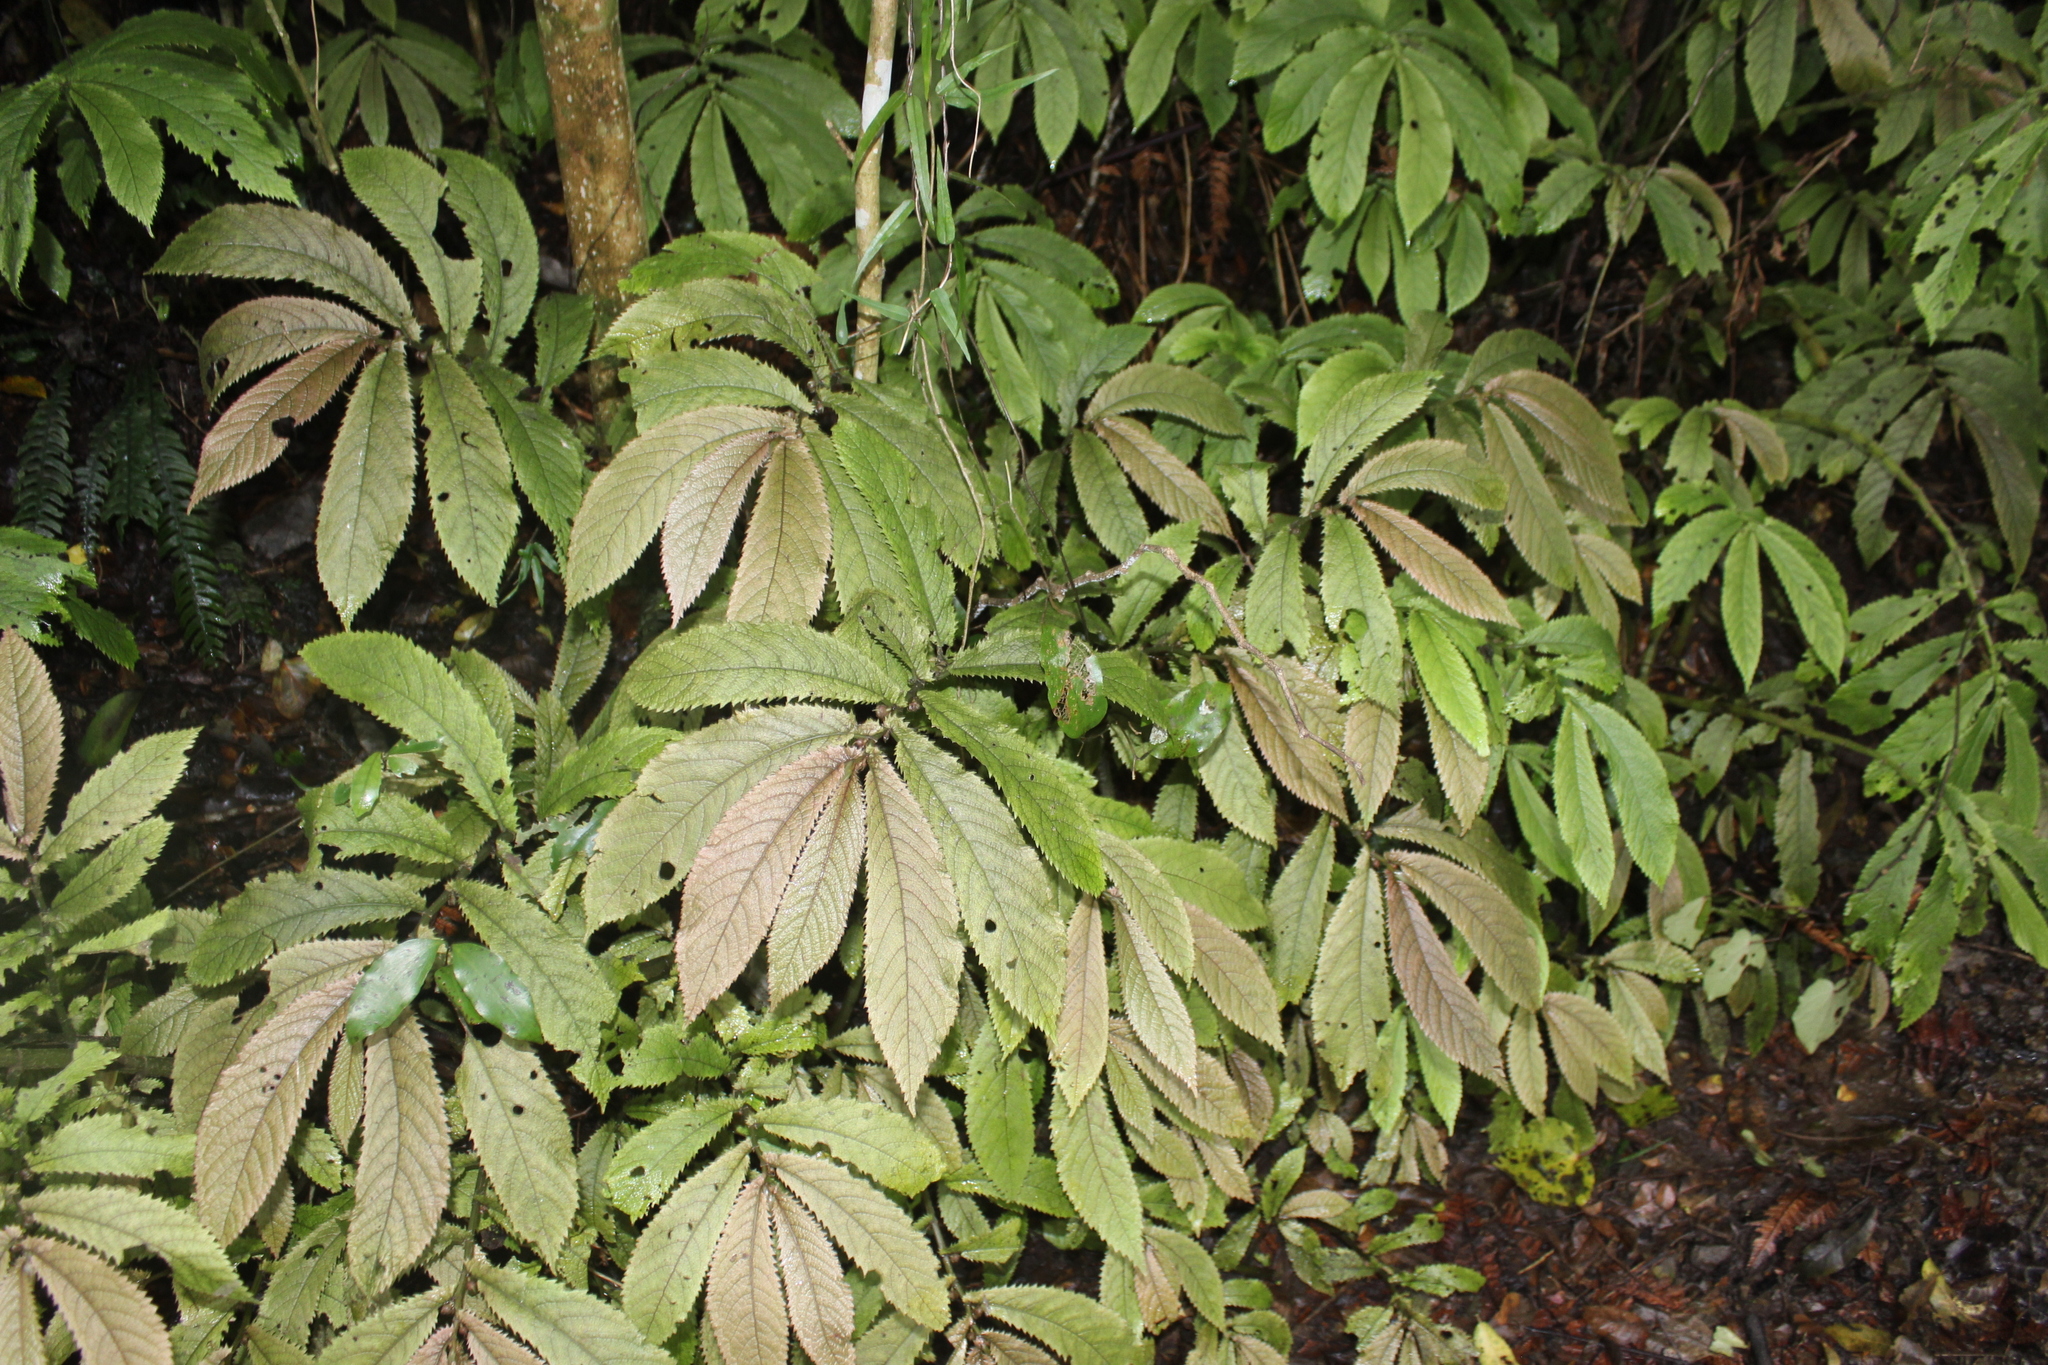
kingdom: Plantae
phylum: Tracheophyta
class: Magnoliopsida
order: Rosales
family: Urticaceae
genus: Elatostema
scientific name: Elatostema rugosum
